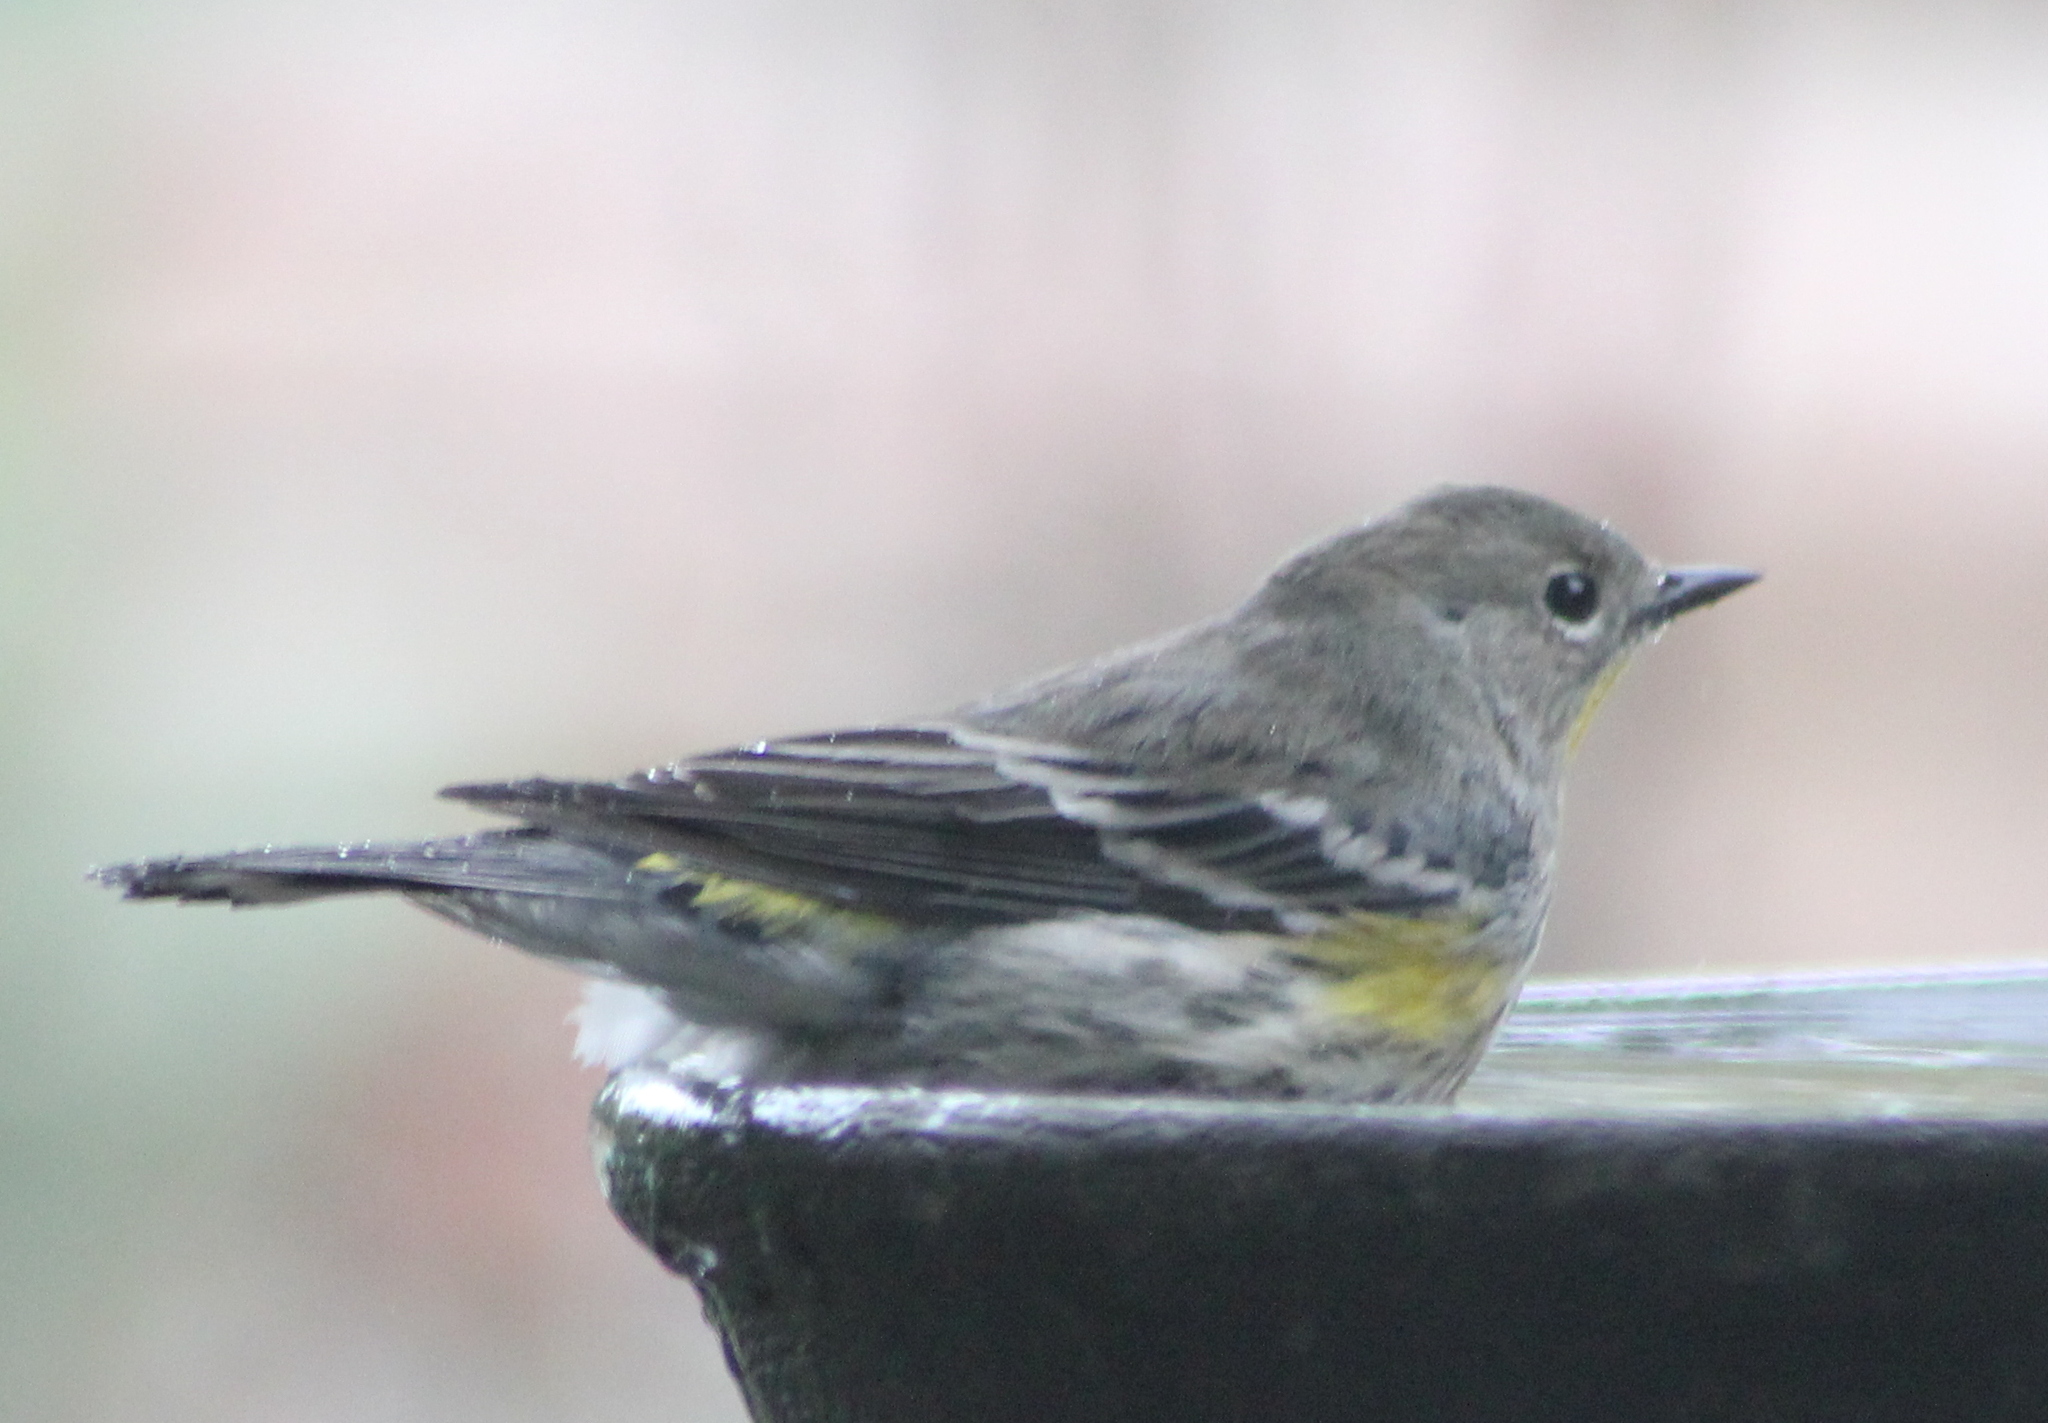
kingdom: Animalia
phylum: Chordata
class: Aves
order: Passeriformes
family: Parulidae
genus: Setophaga
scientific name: Setophaga auduboni
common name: Audubon's warbler
